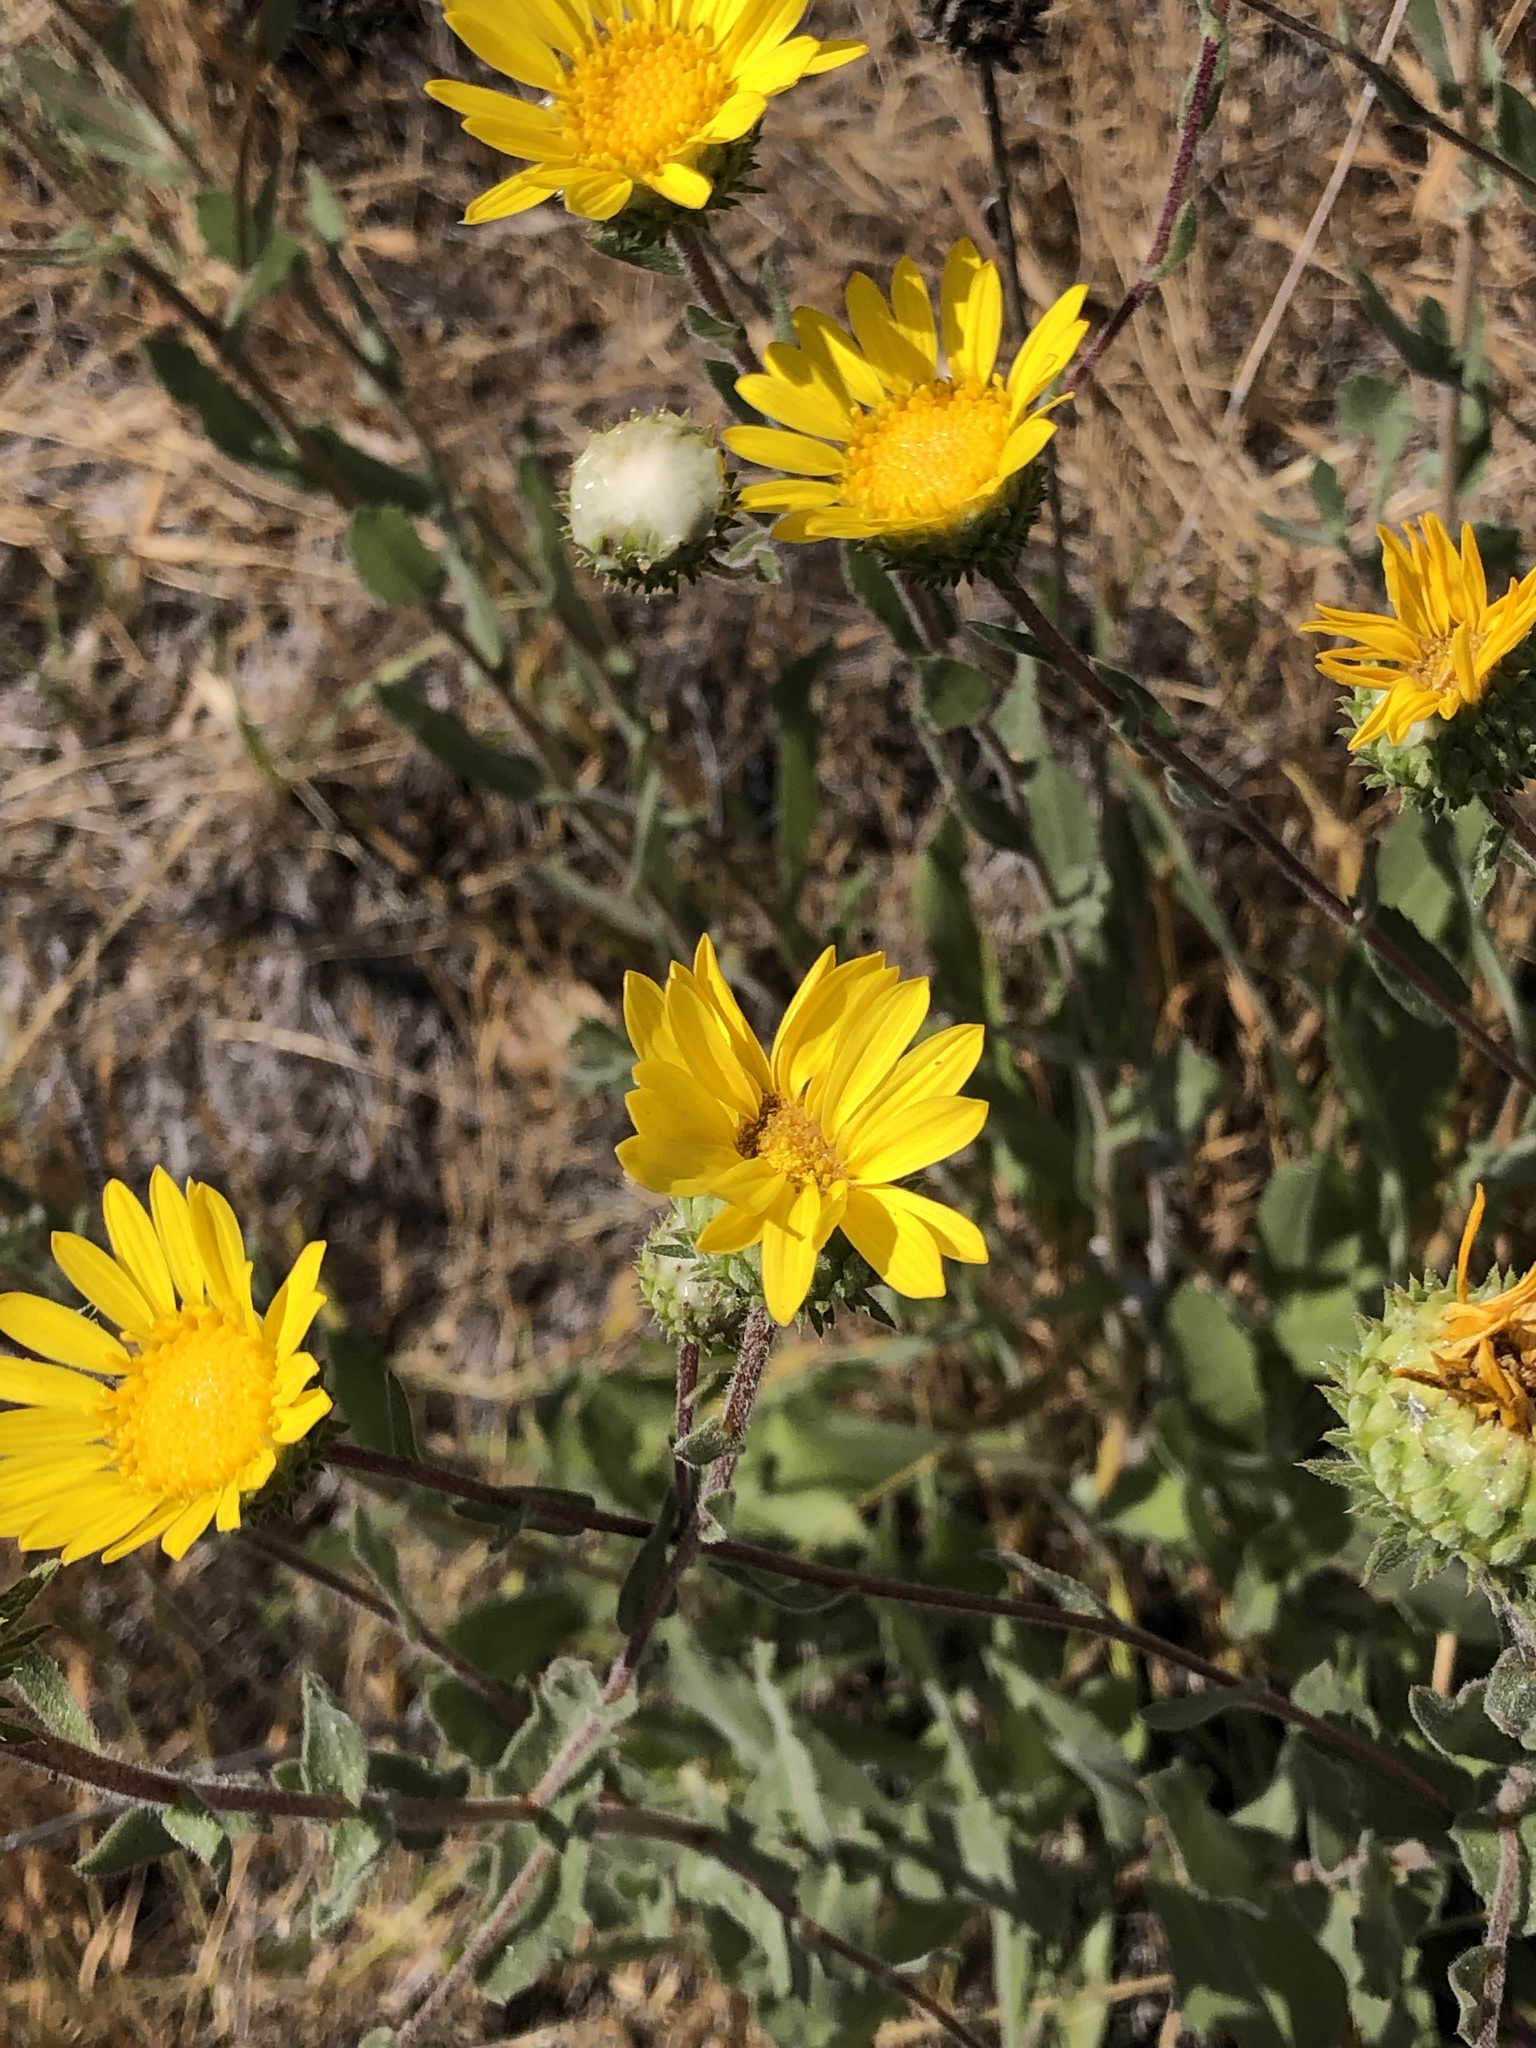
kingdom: Plantae
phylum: Tracheophyta
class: Magnoliopsida
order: Asterales
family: Asteraceae
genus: Grindelia
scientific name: Grindelia hirsutula
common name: Hairy gumweed
